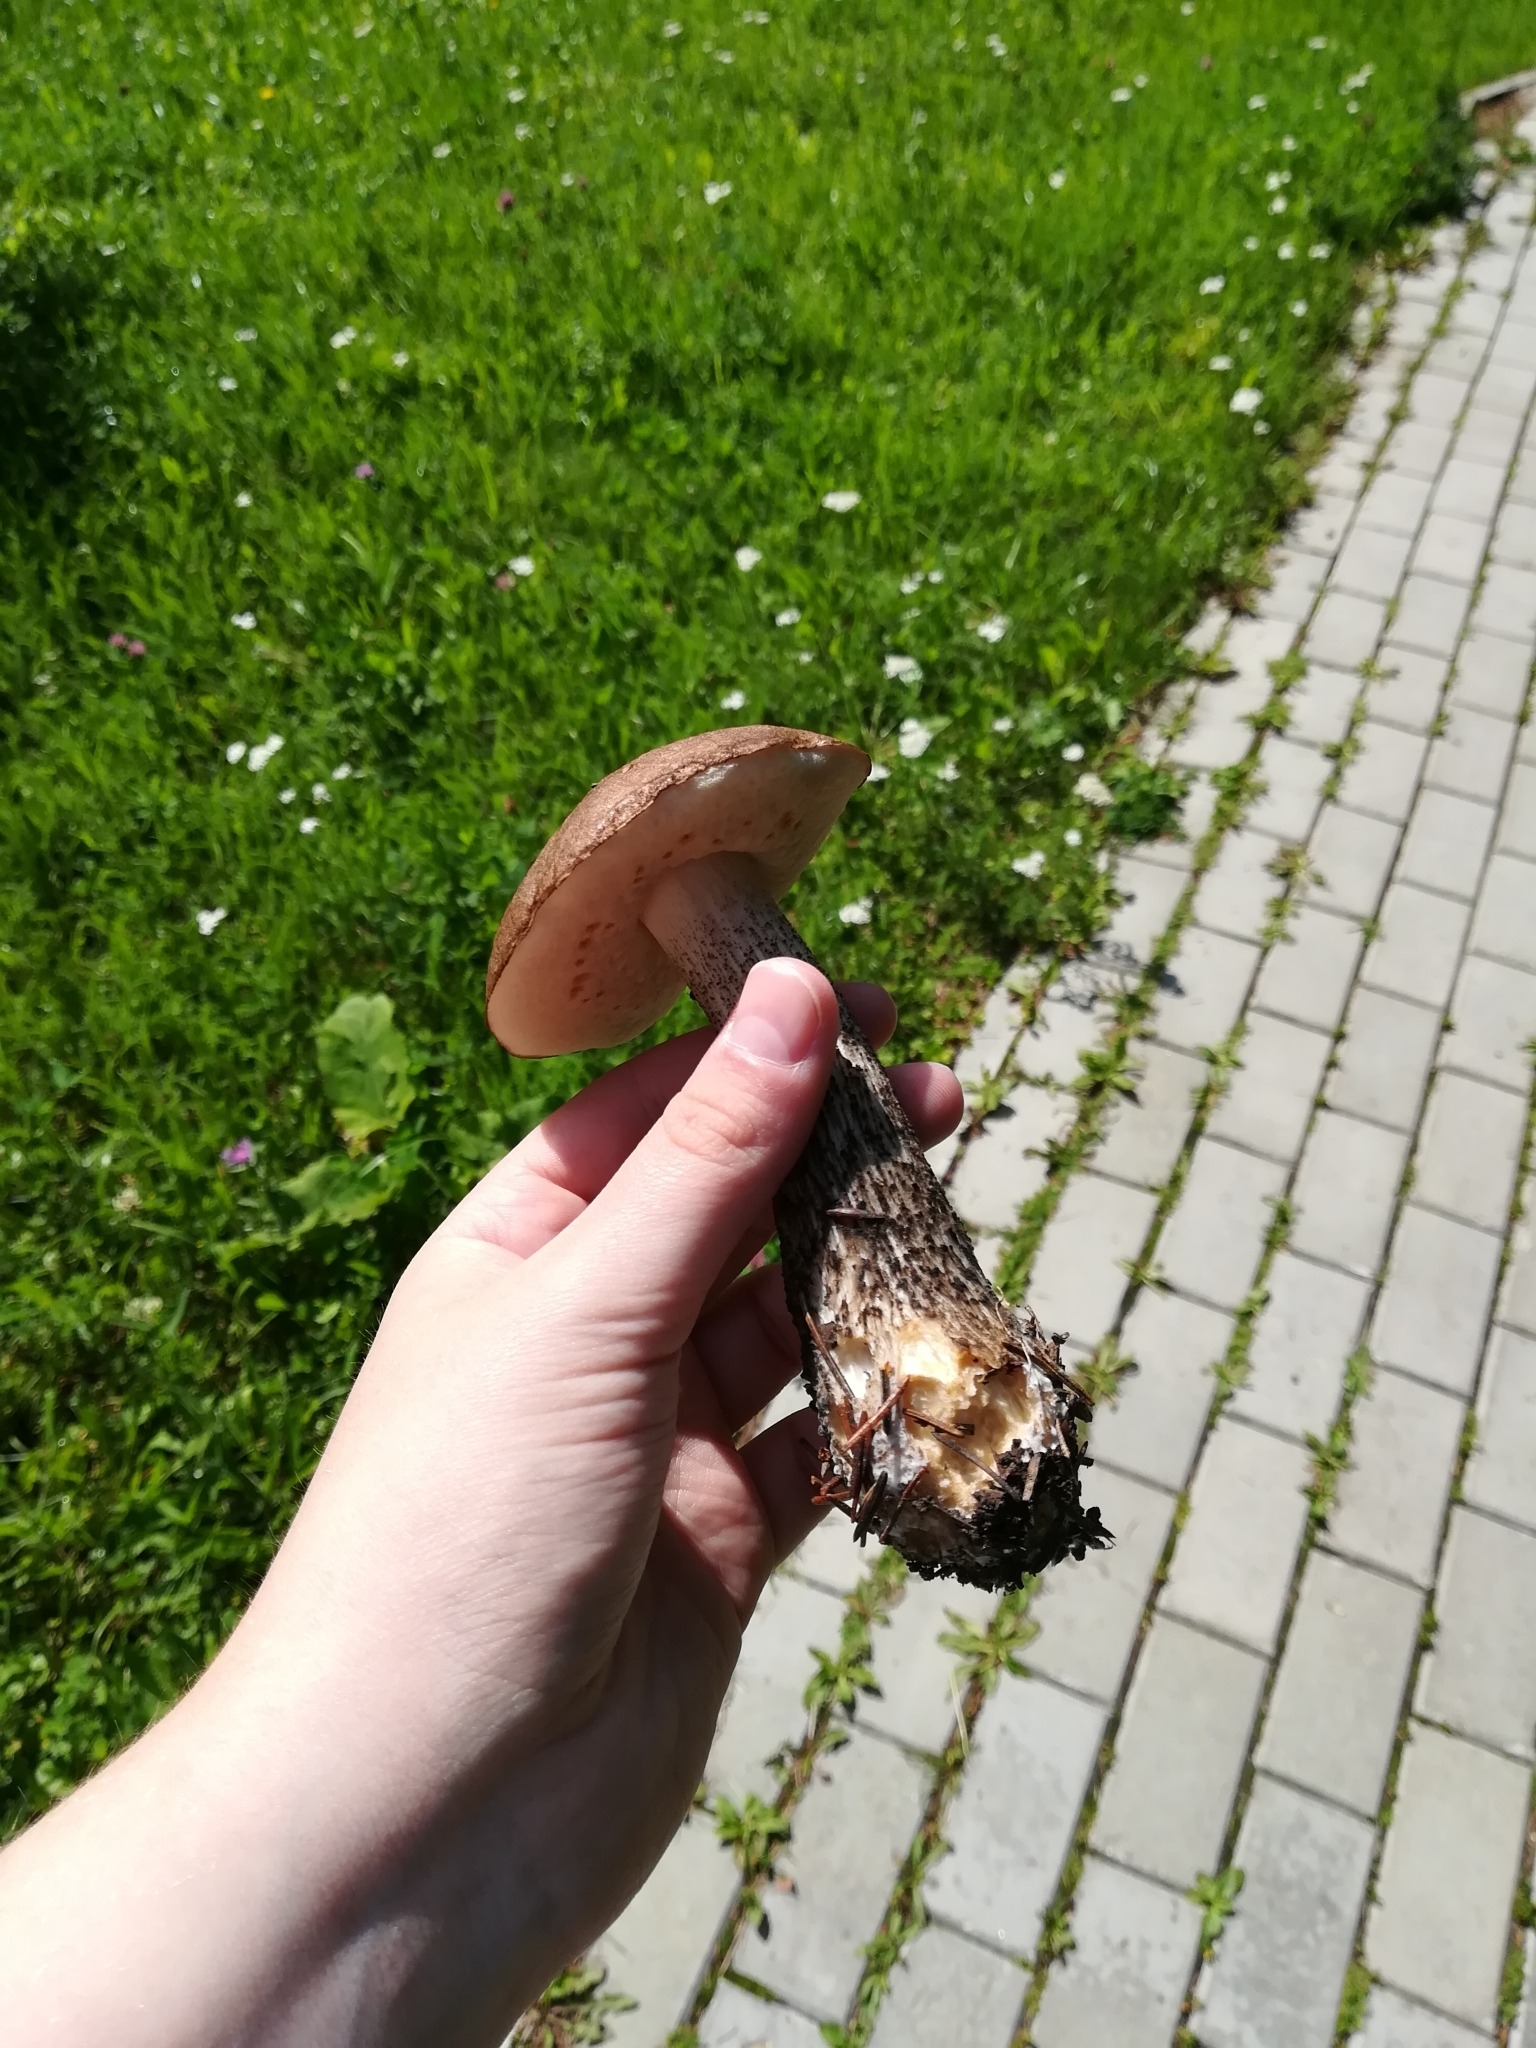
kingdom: Fungi
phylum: Basidiomycota
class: Agaricomycetes
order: Boletales
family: Boletaceae
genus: Leccinum
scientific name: Leccinum scabrum
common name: Blushing bolete
